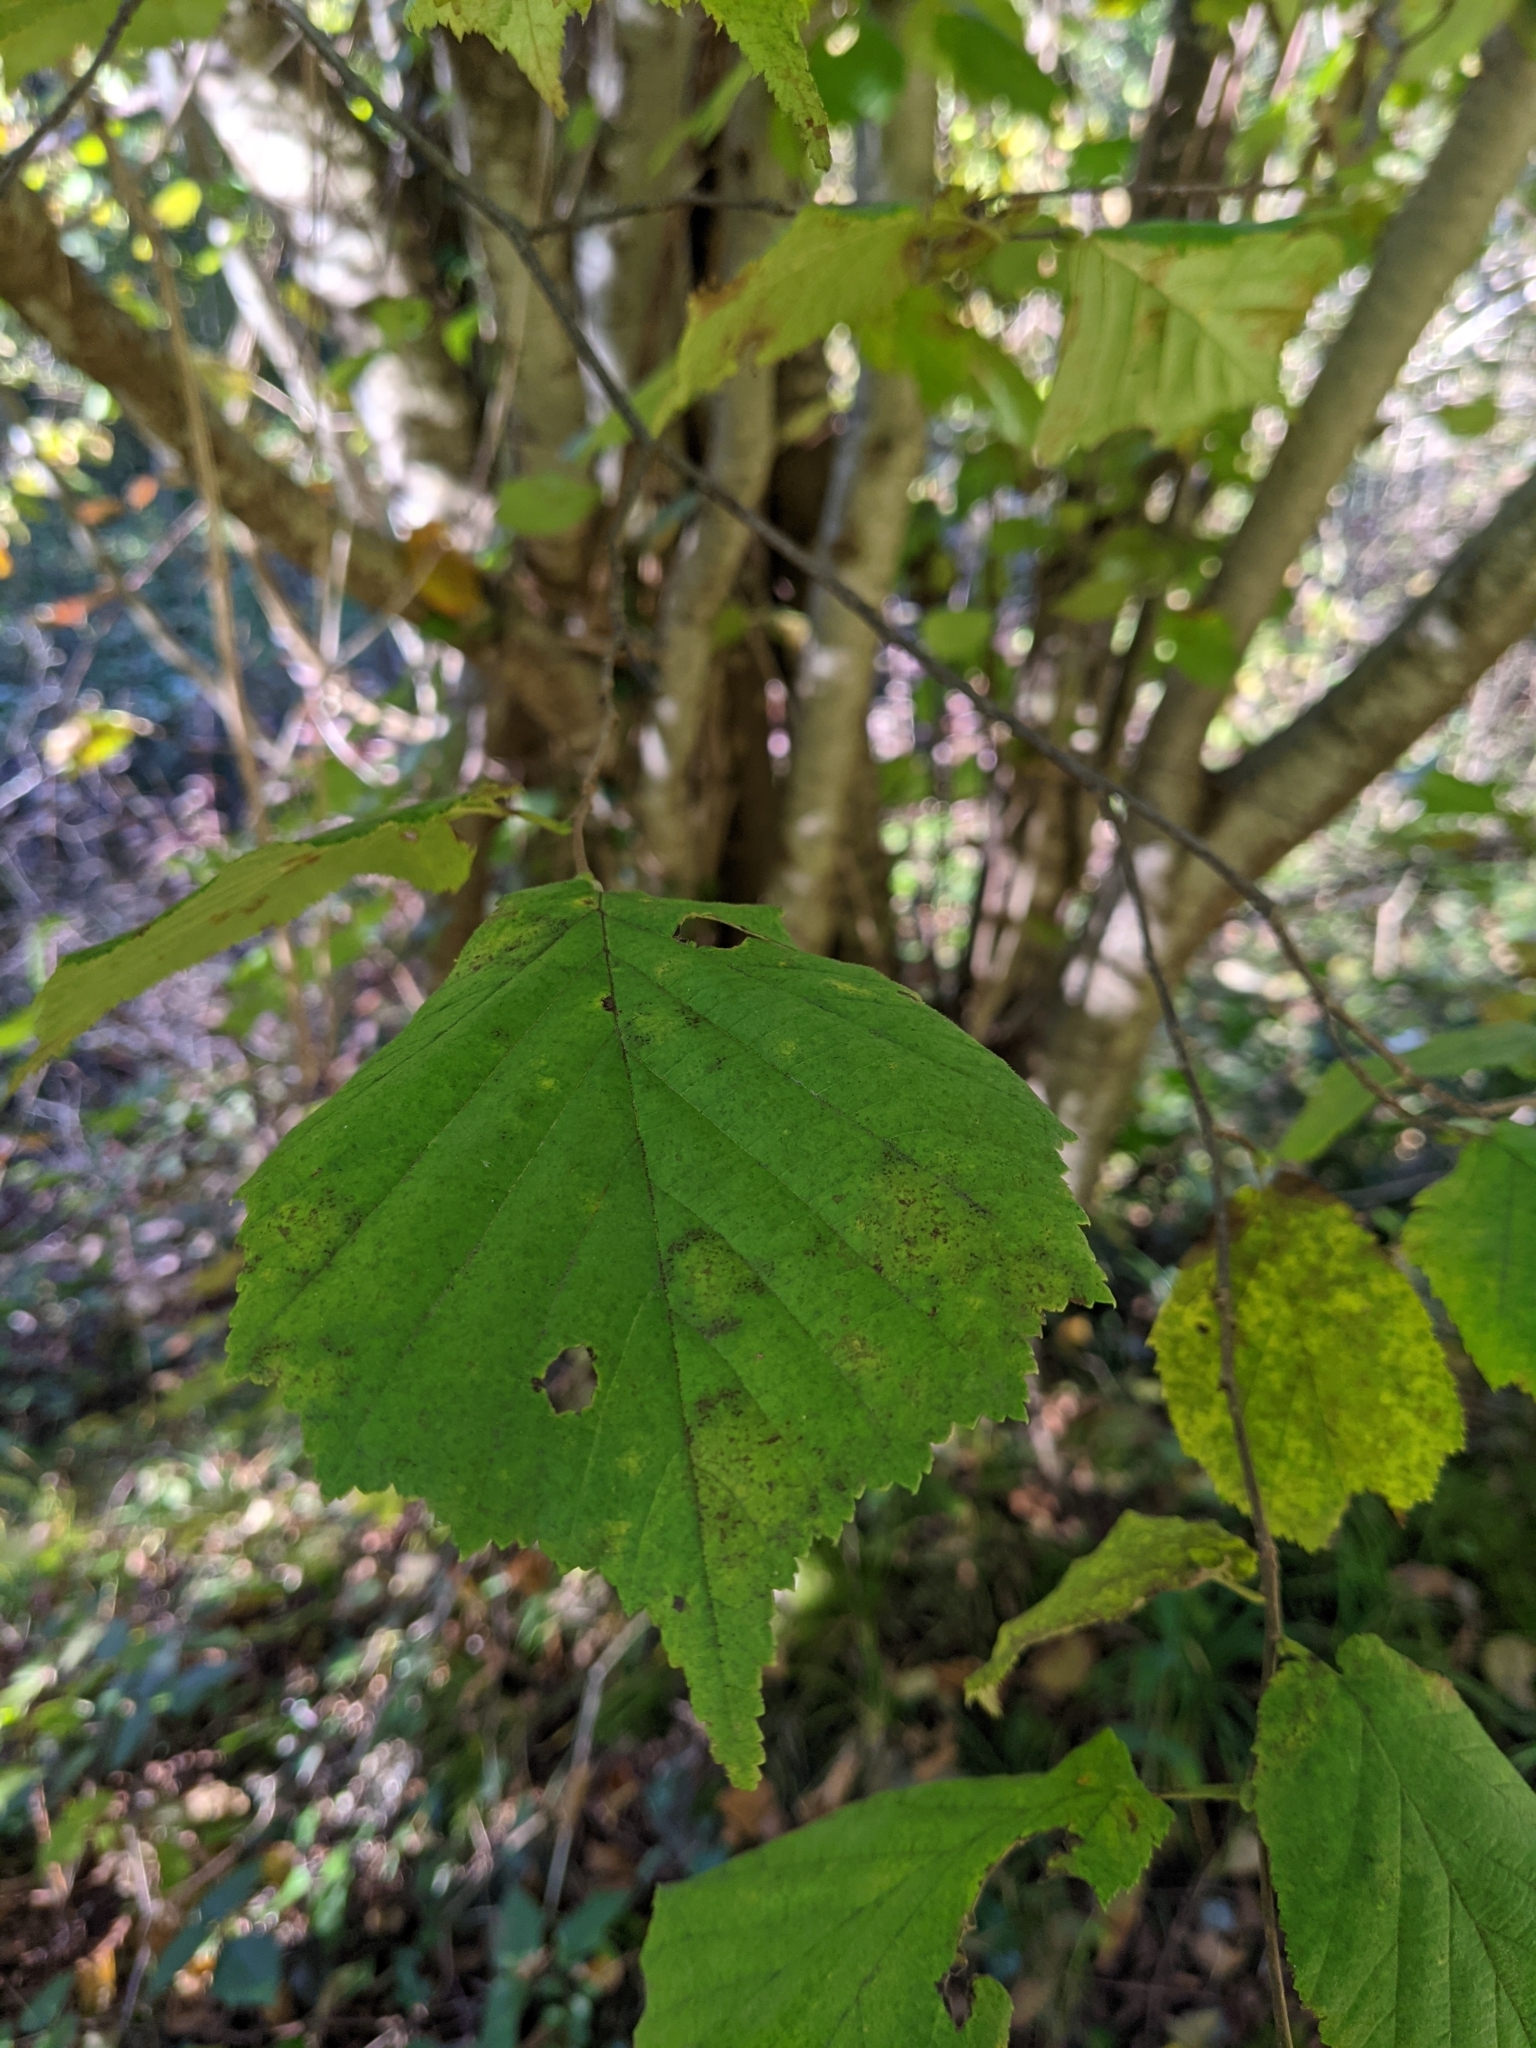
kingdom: Plantae
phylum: Tracheophyta
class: Magnoliopsida
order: Fagales
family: Betulaceae
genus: Corylus
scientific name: Corylus avellana
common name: European hazel
